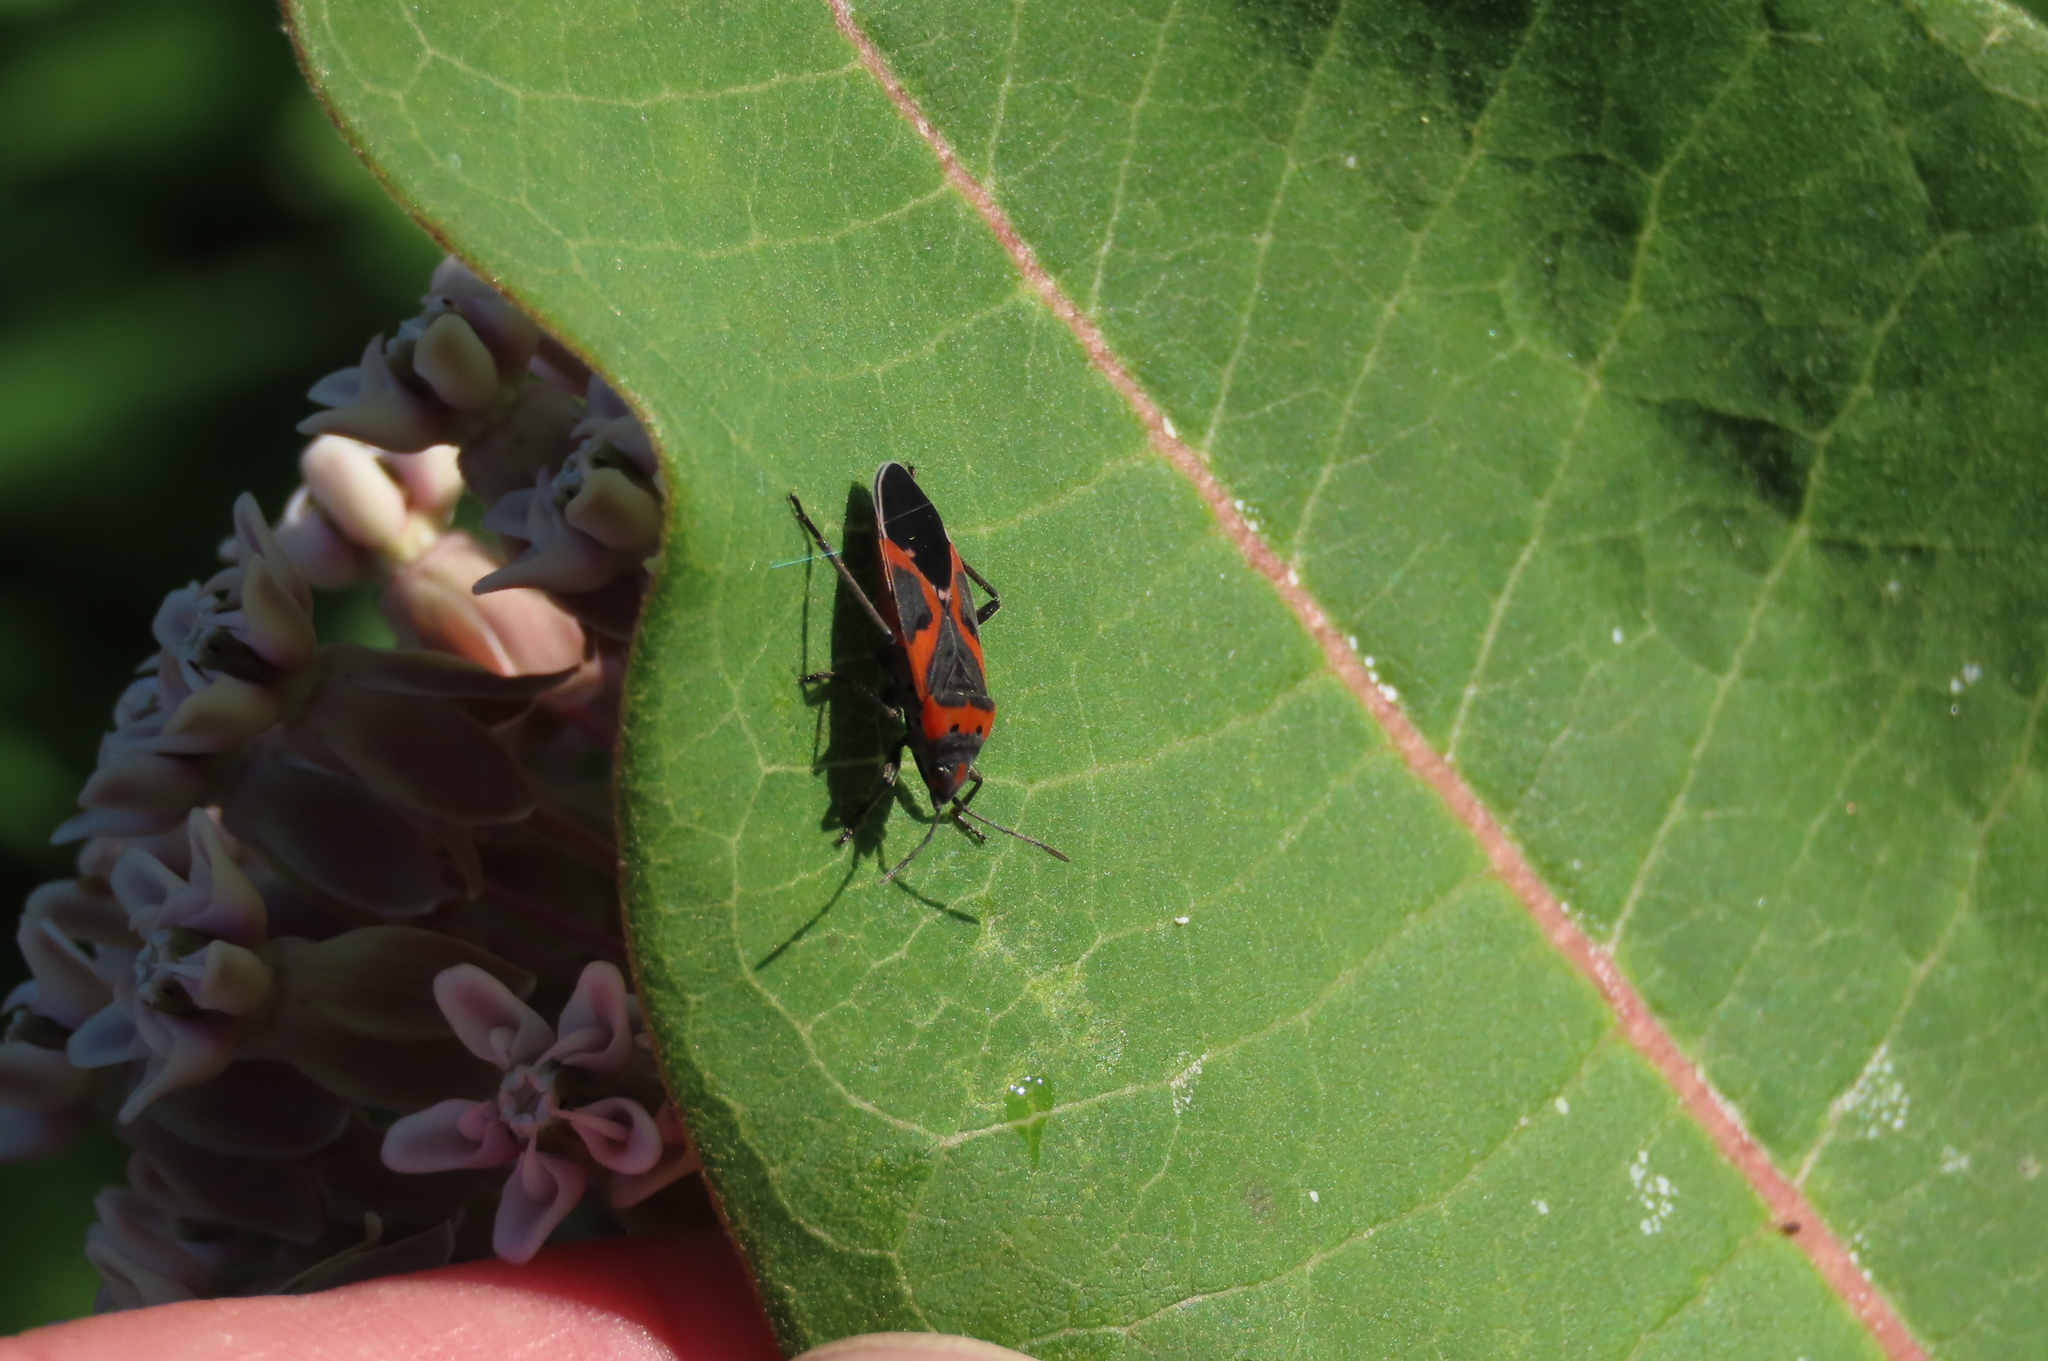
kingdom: Animalia
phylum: Arthropoda
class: Insecta
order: Hemiptera
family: Lygaeidae
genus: Lygaeus
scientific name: Lygaeus kalmii
